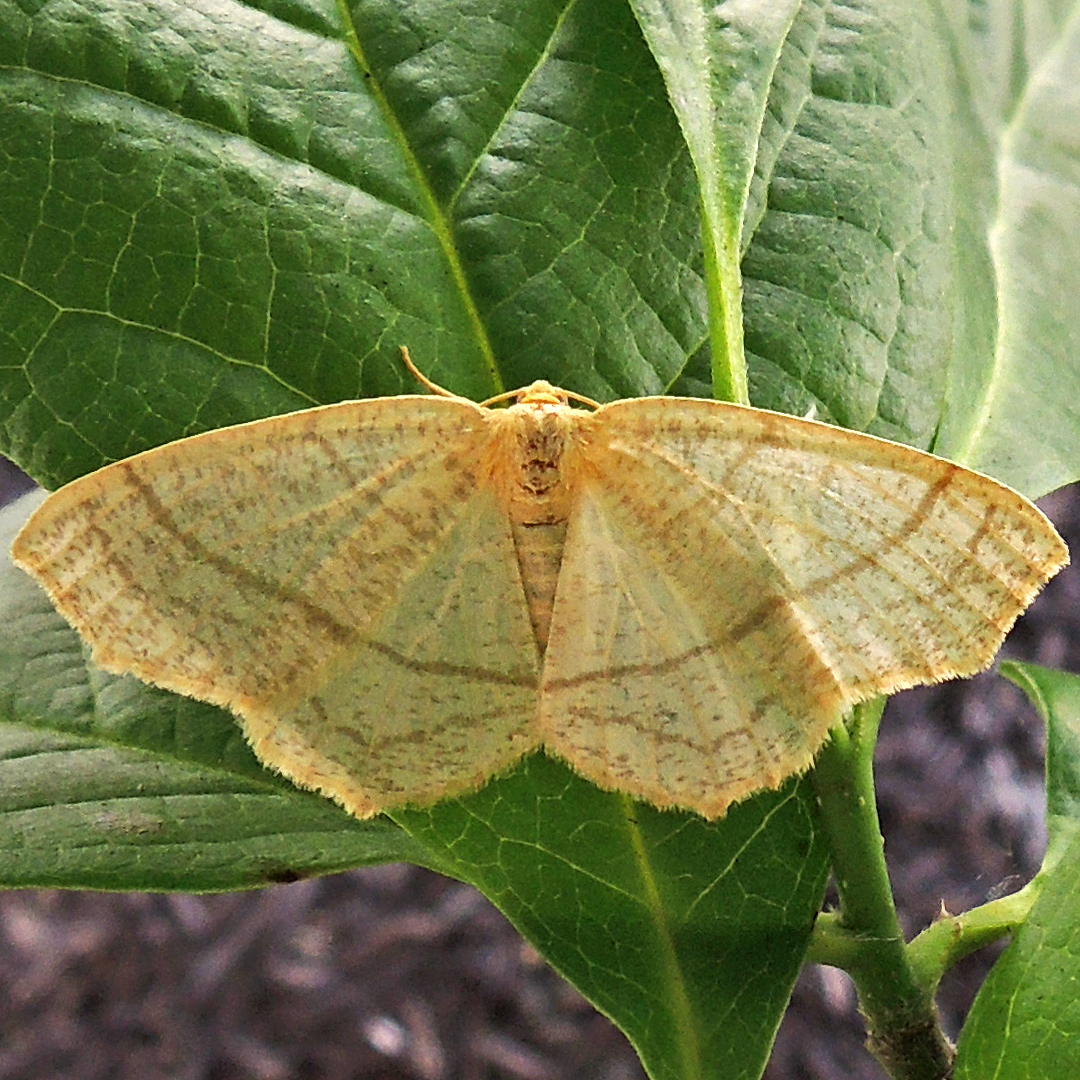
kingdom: Animalia
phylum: Arthropoda
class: Insecta
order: Lepidoptera
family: Geometridae
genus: Besma
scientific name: Besma endropiaria
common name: Straw besma
